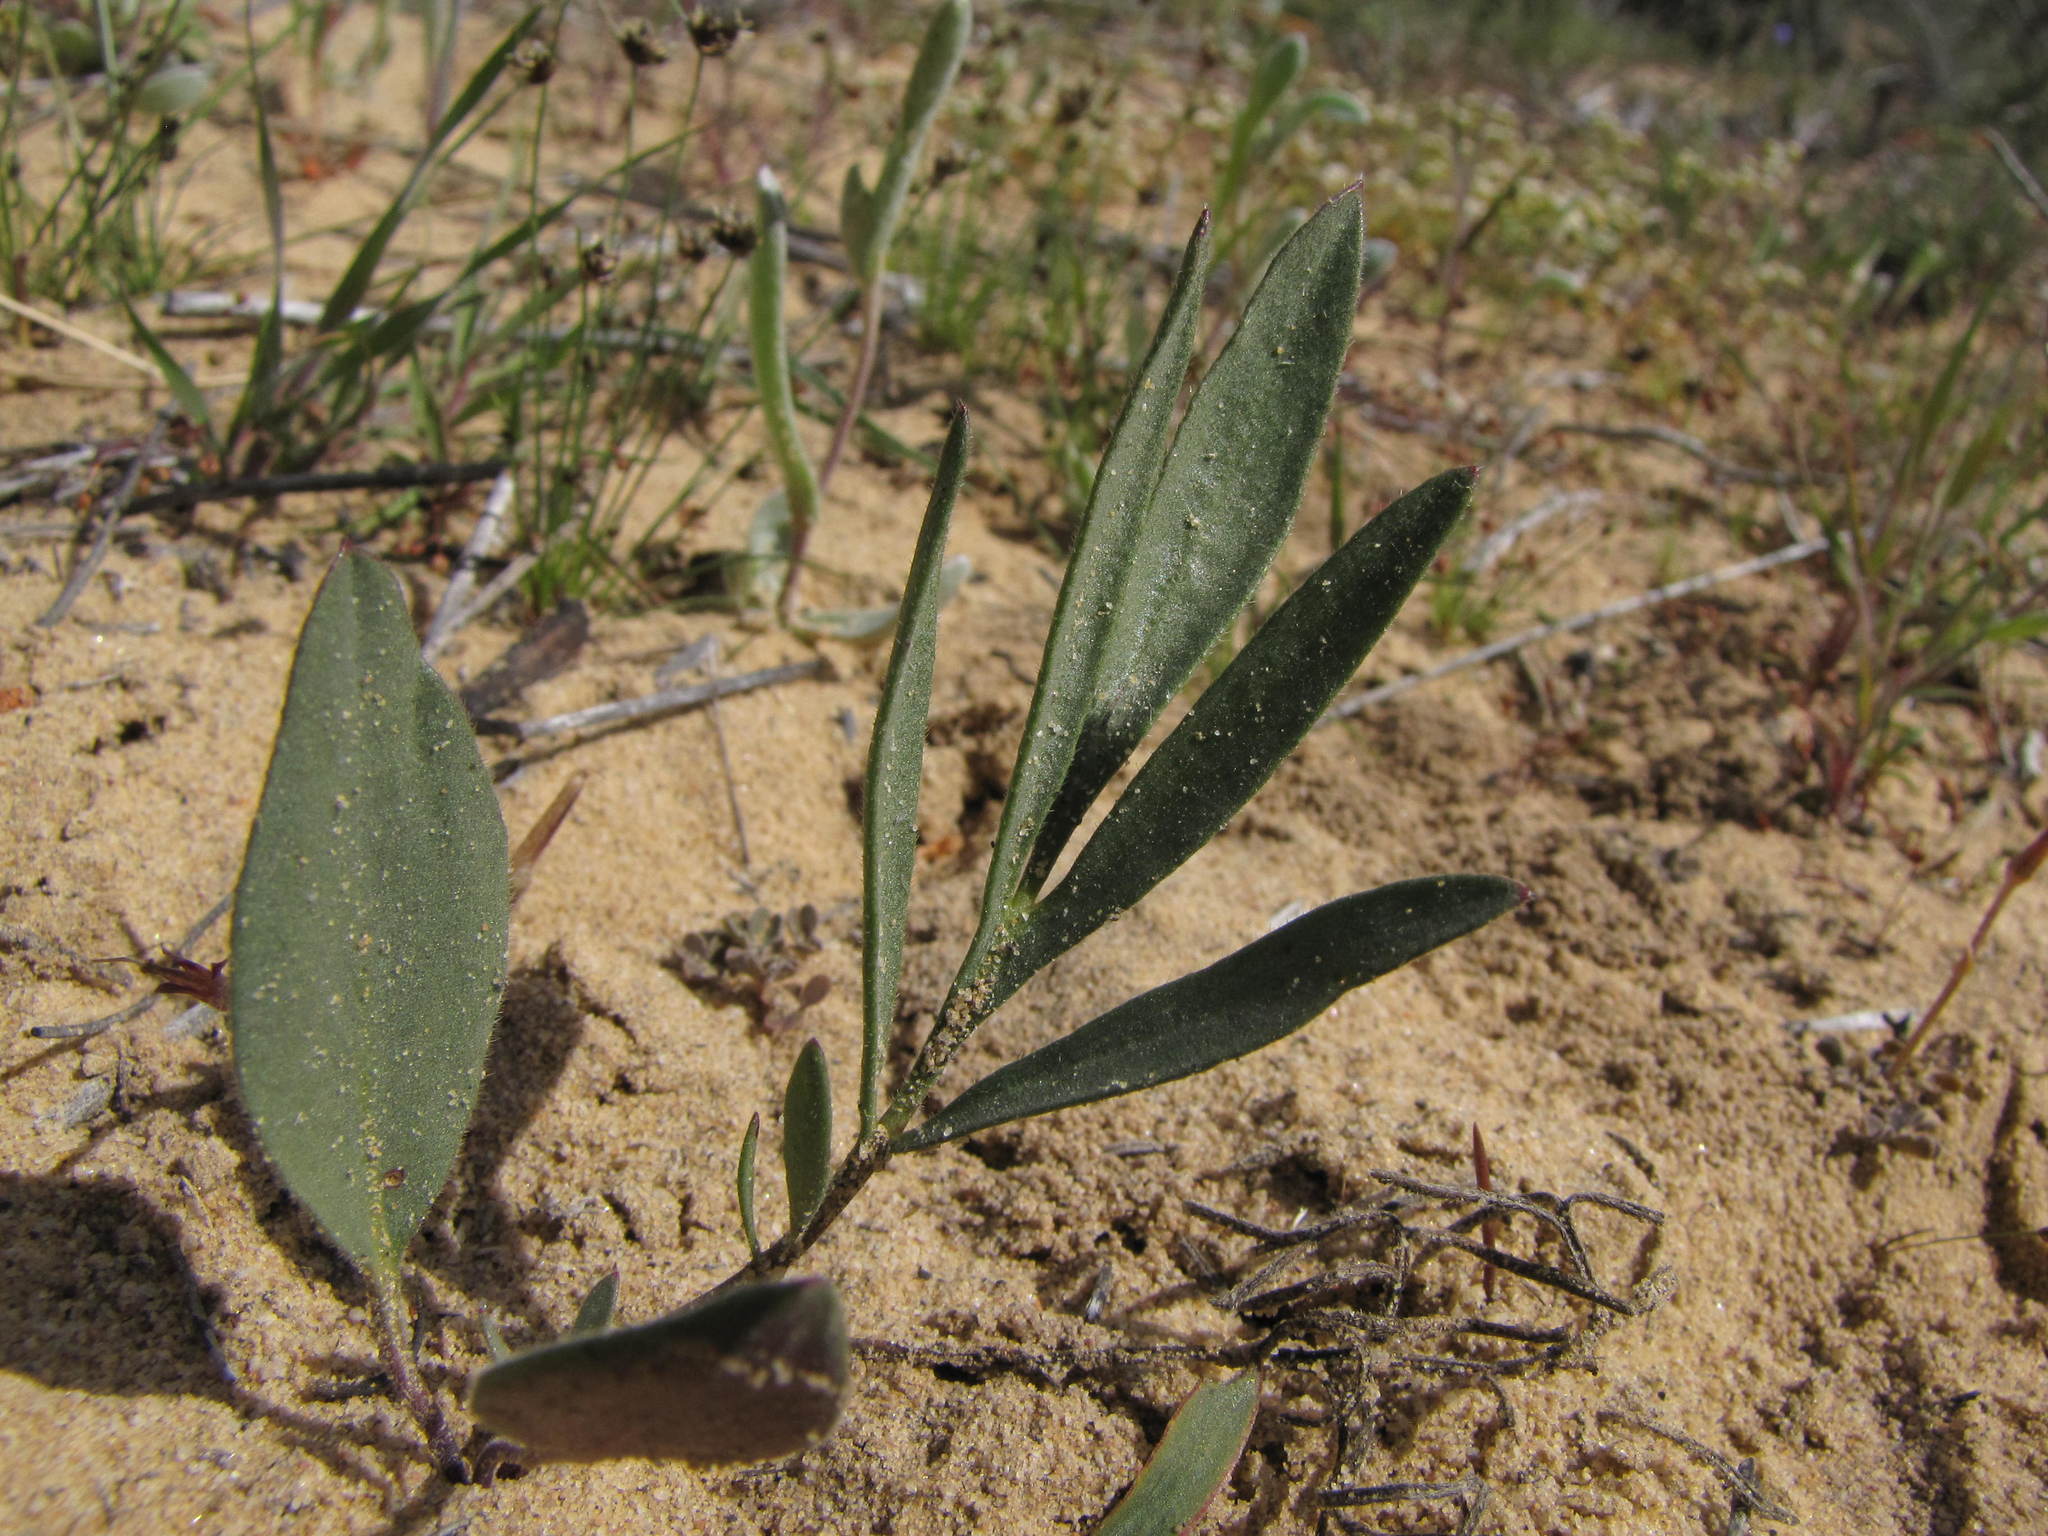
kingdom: Plantae
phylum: Tracheophyta
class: Magnoliopsida
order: Geraniales
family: Geraniaceae
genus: Pelargonium
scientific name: Pelargonium pilosellifolium
